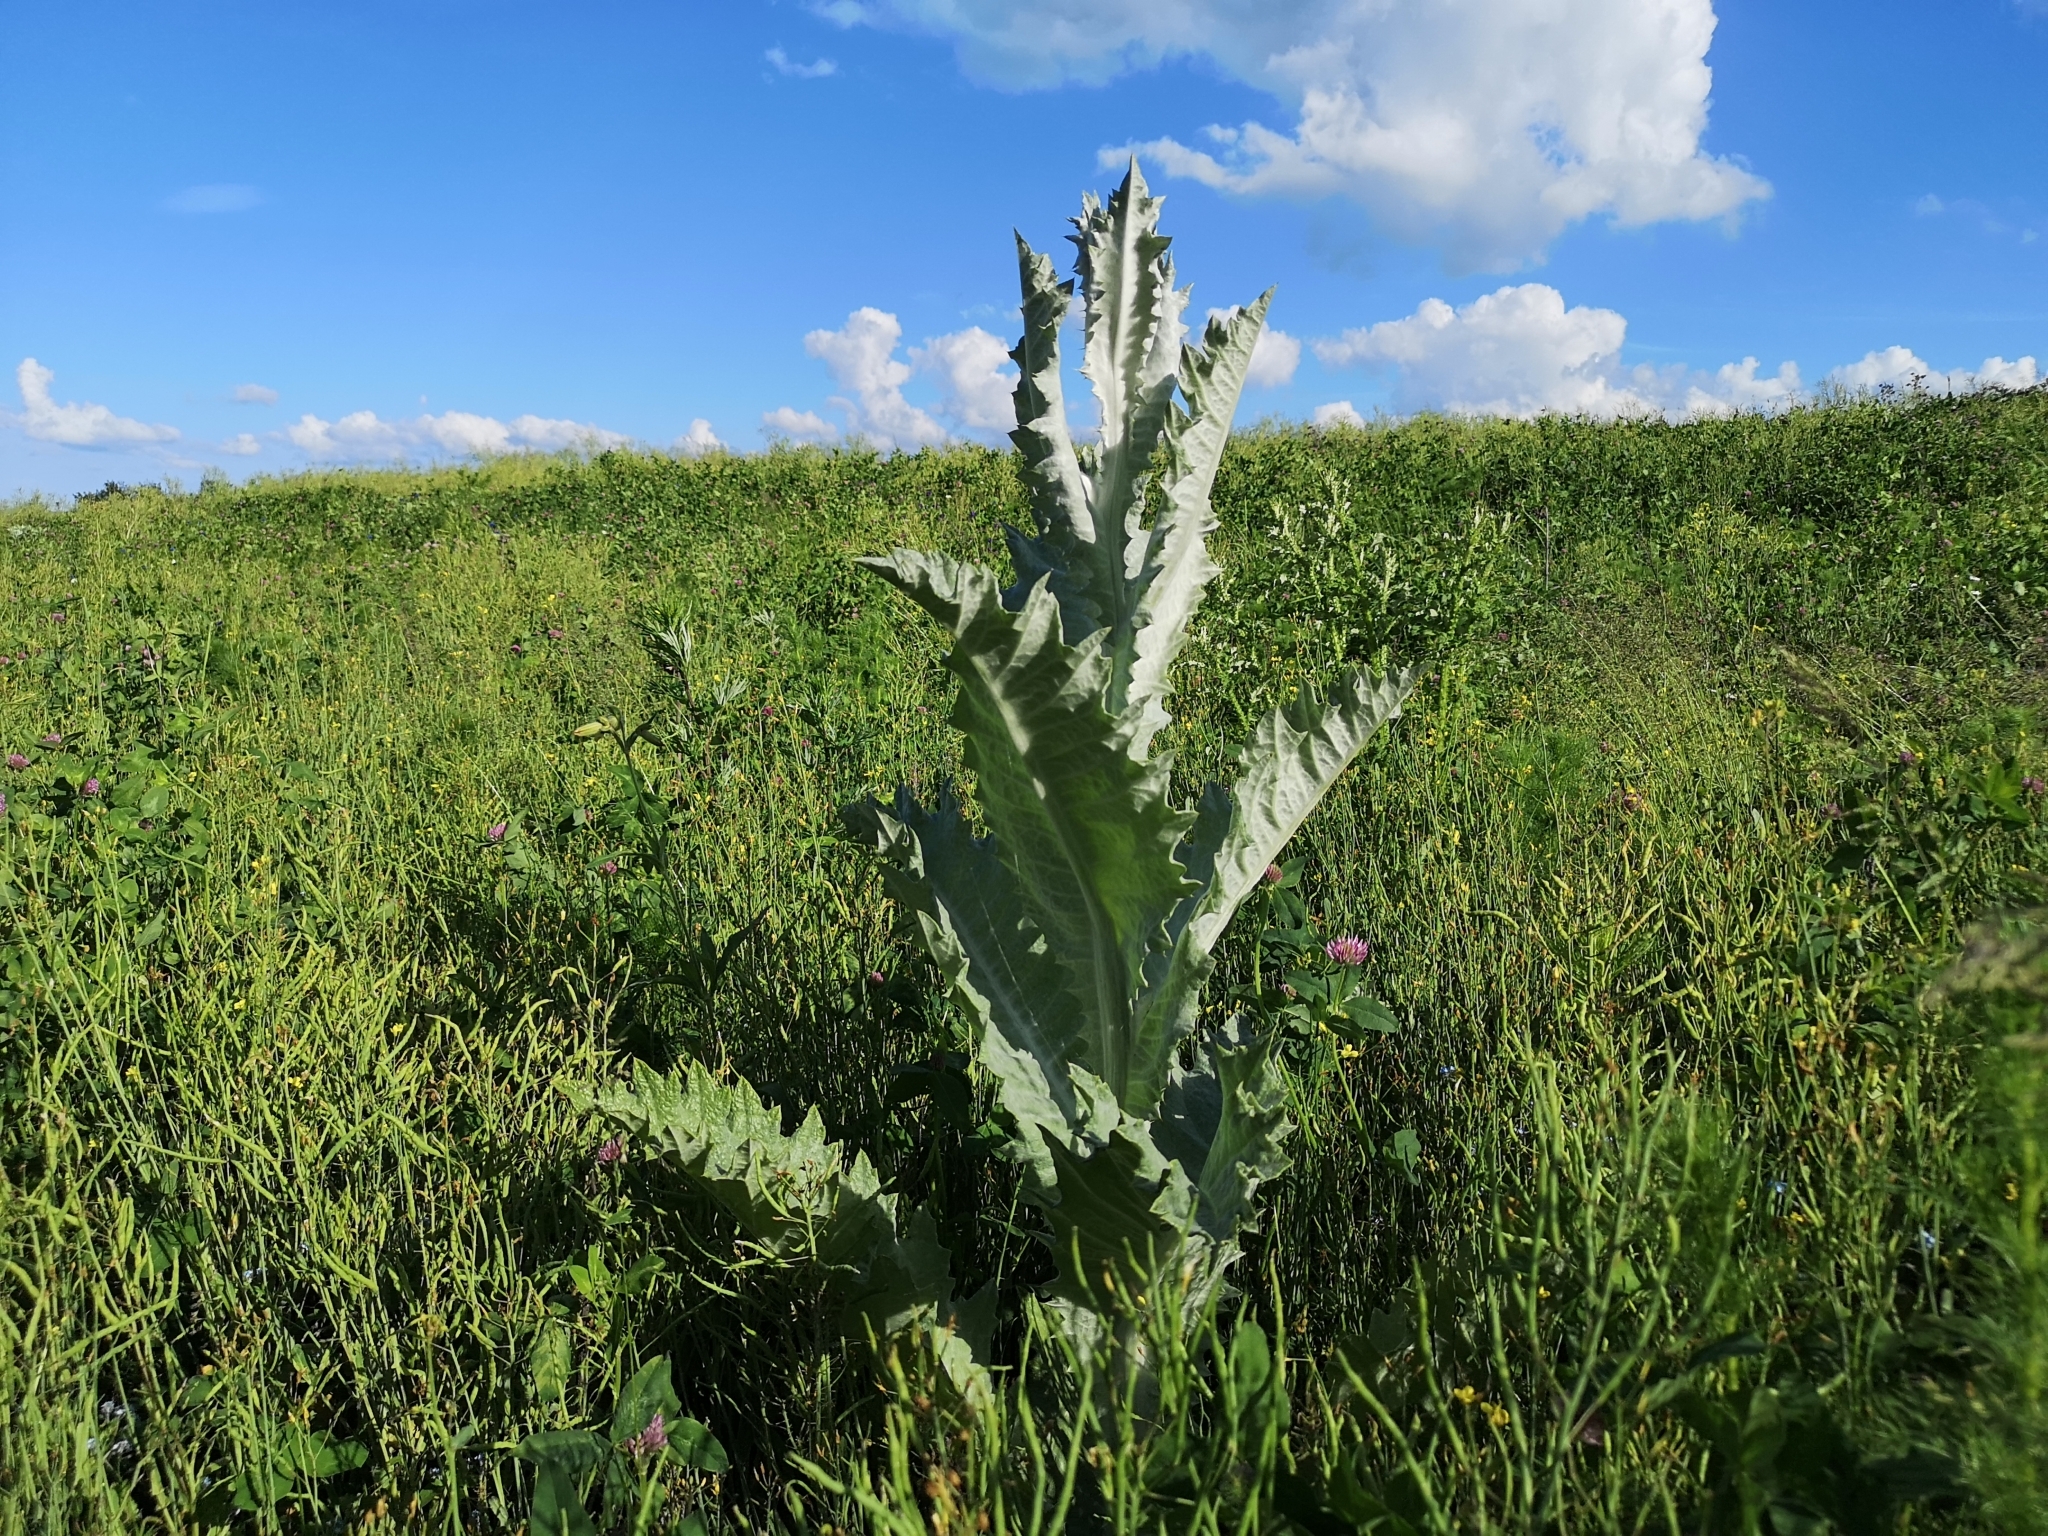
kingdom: Plantae
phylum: Tracheophyta
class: Magnoliopsida
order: Asterales
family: Asteraceae
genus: Onopordum
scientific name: Onopordum acanthium
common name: Scotch thistle
